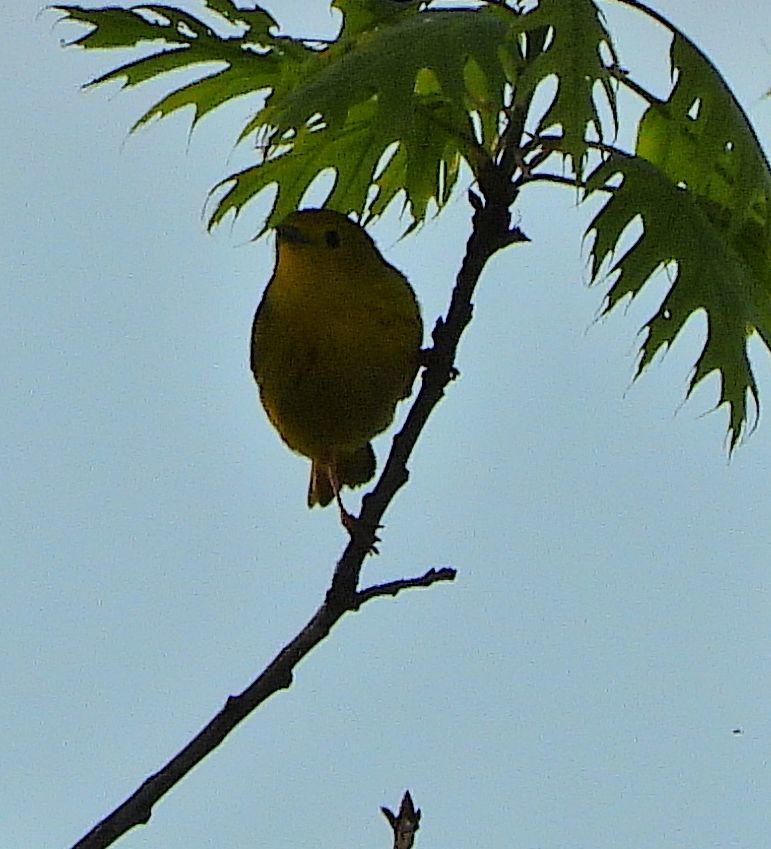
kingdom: Animalia
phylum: Chordata
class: Aves
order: Passeriformes
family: Parulidae
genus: Setophaga
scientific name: Setophaga petechia
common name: Yellow warbler
